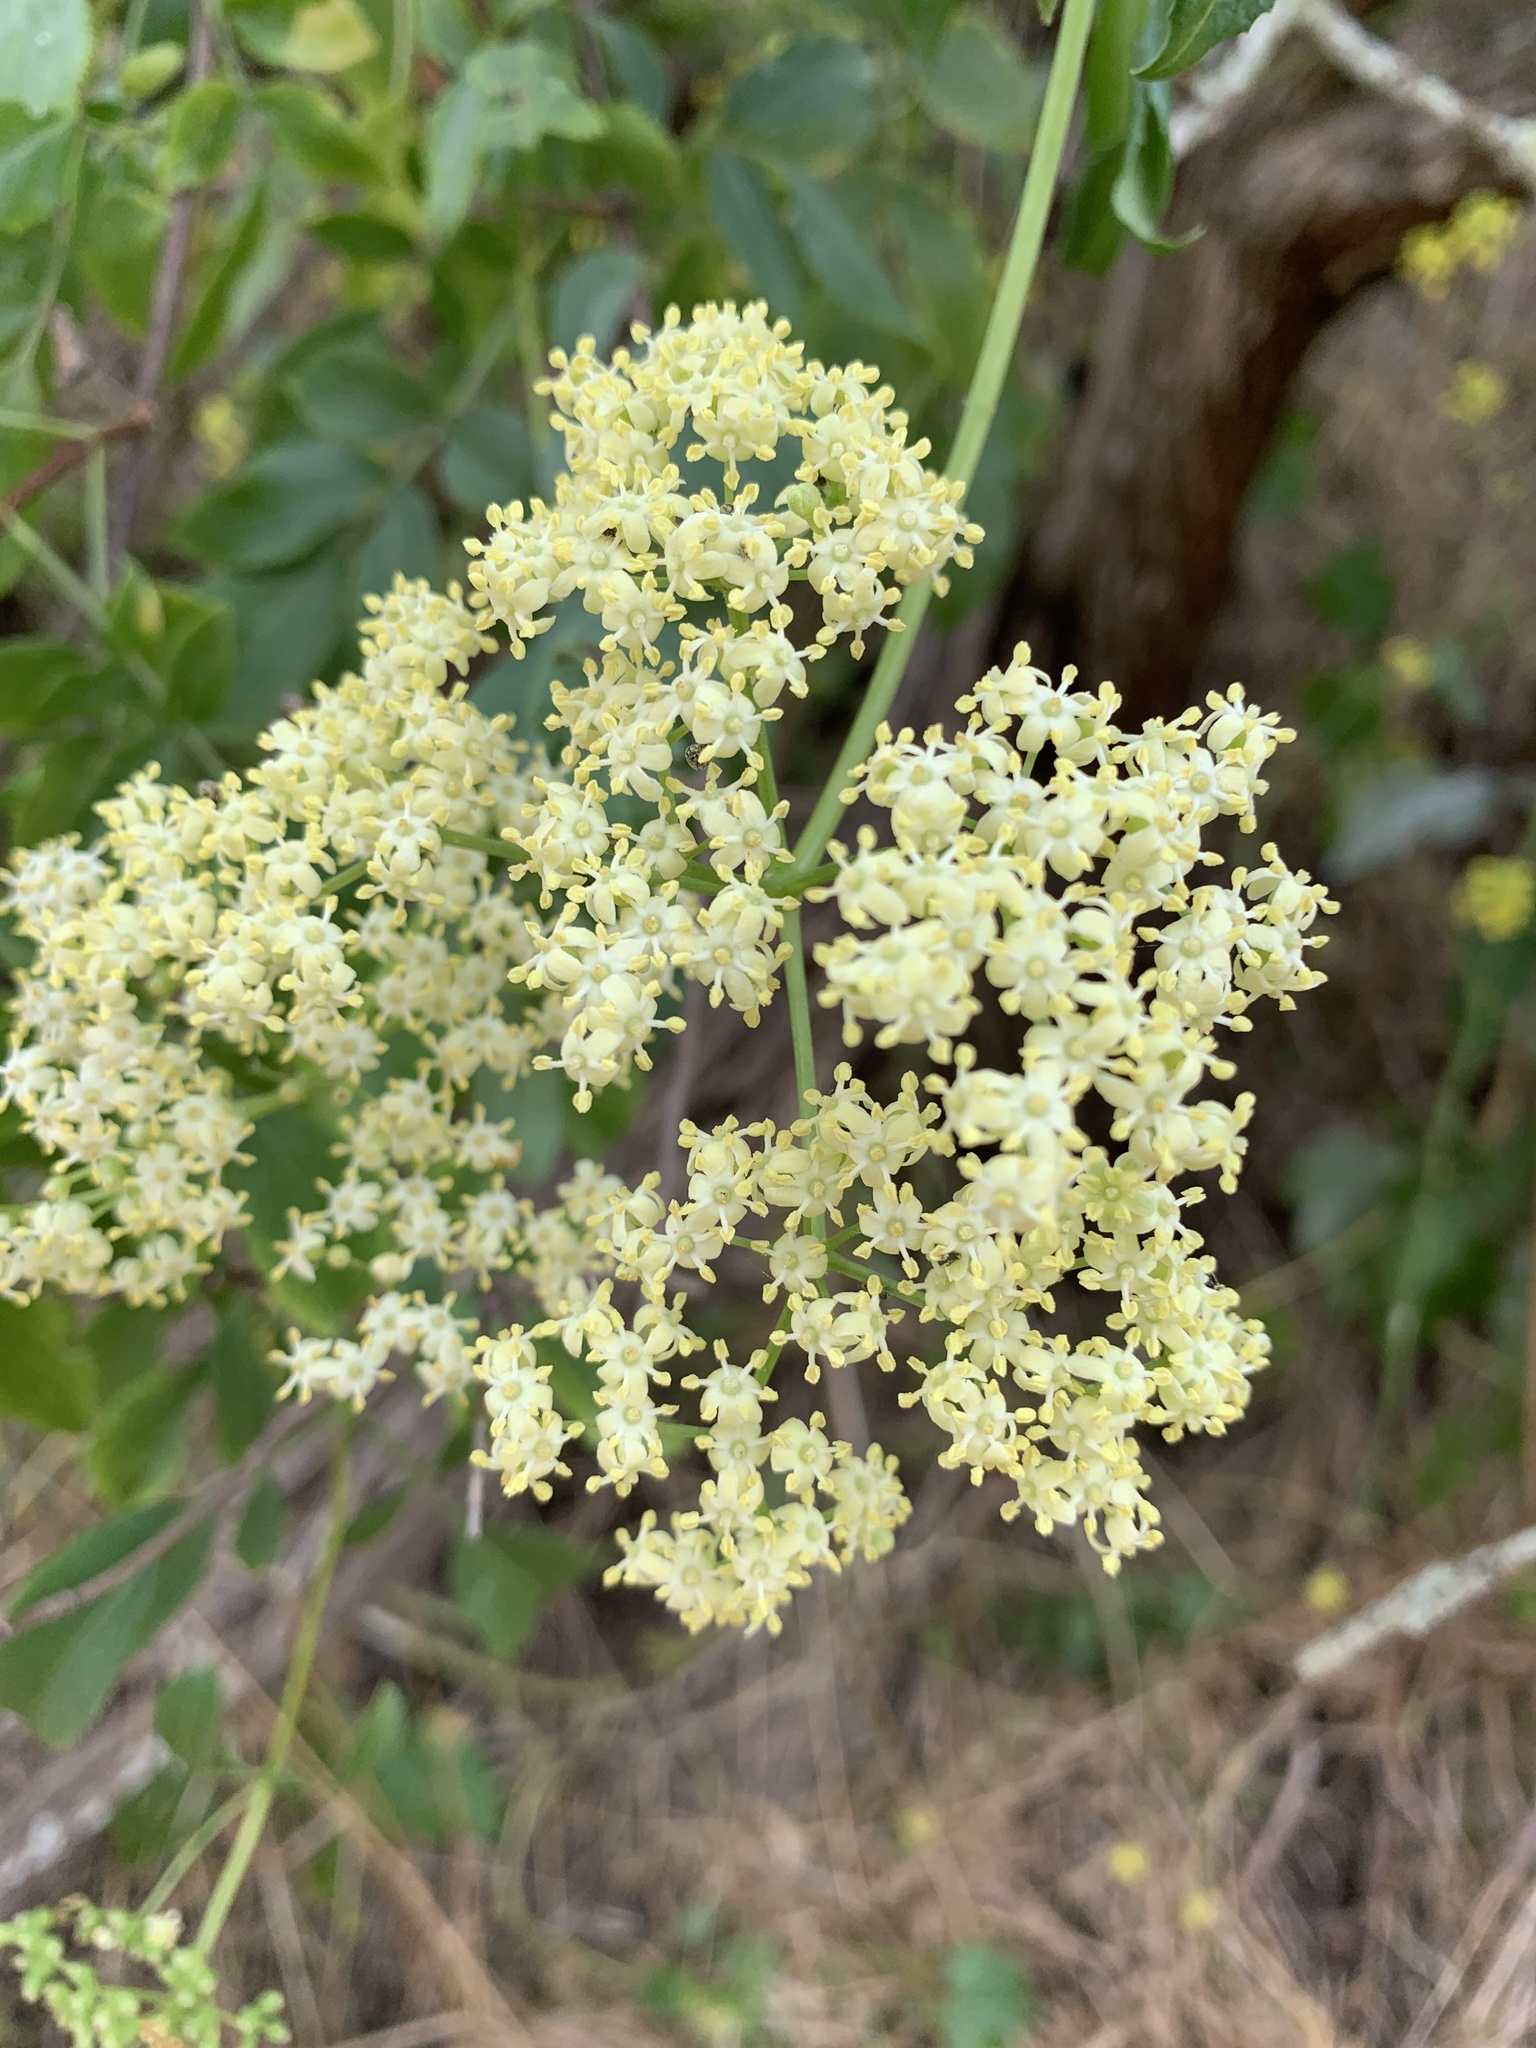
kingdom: Plantae
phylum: Tracheophyta
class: Magnoliopsida
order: Dipsacales
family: Viburnaceae
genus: Sambucus
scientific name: Sambucus cerulea
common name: Blue elder
